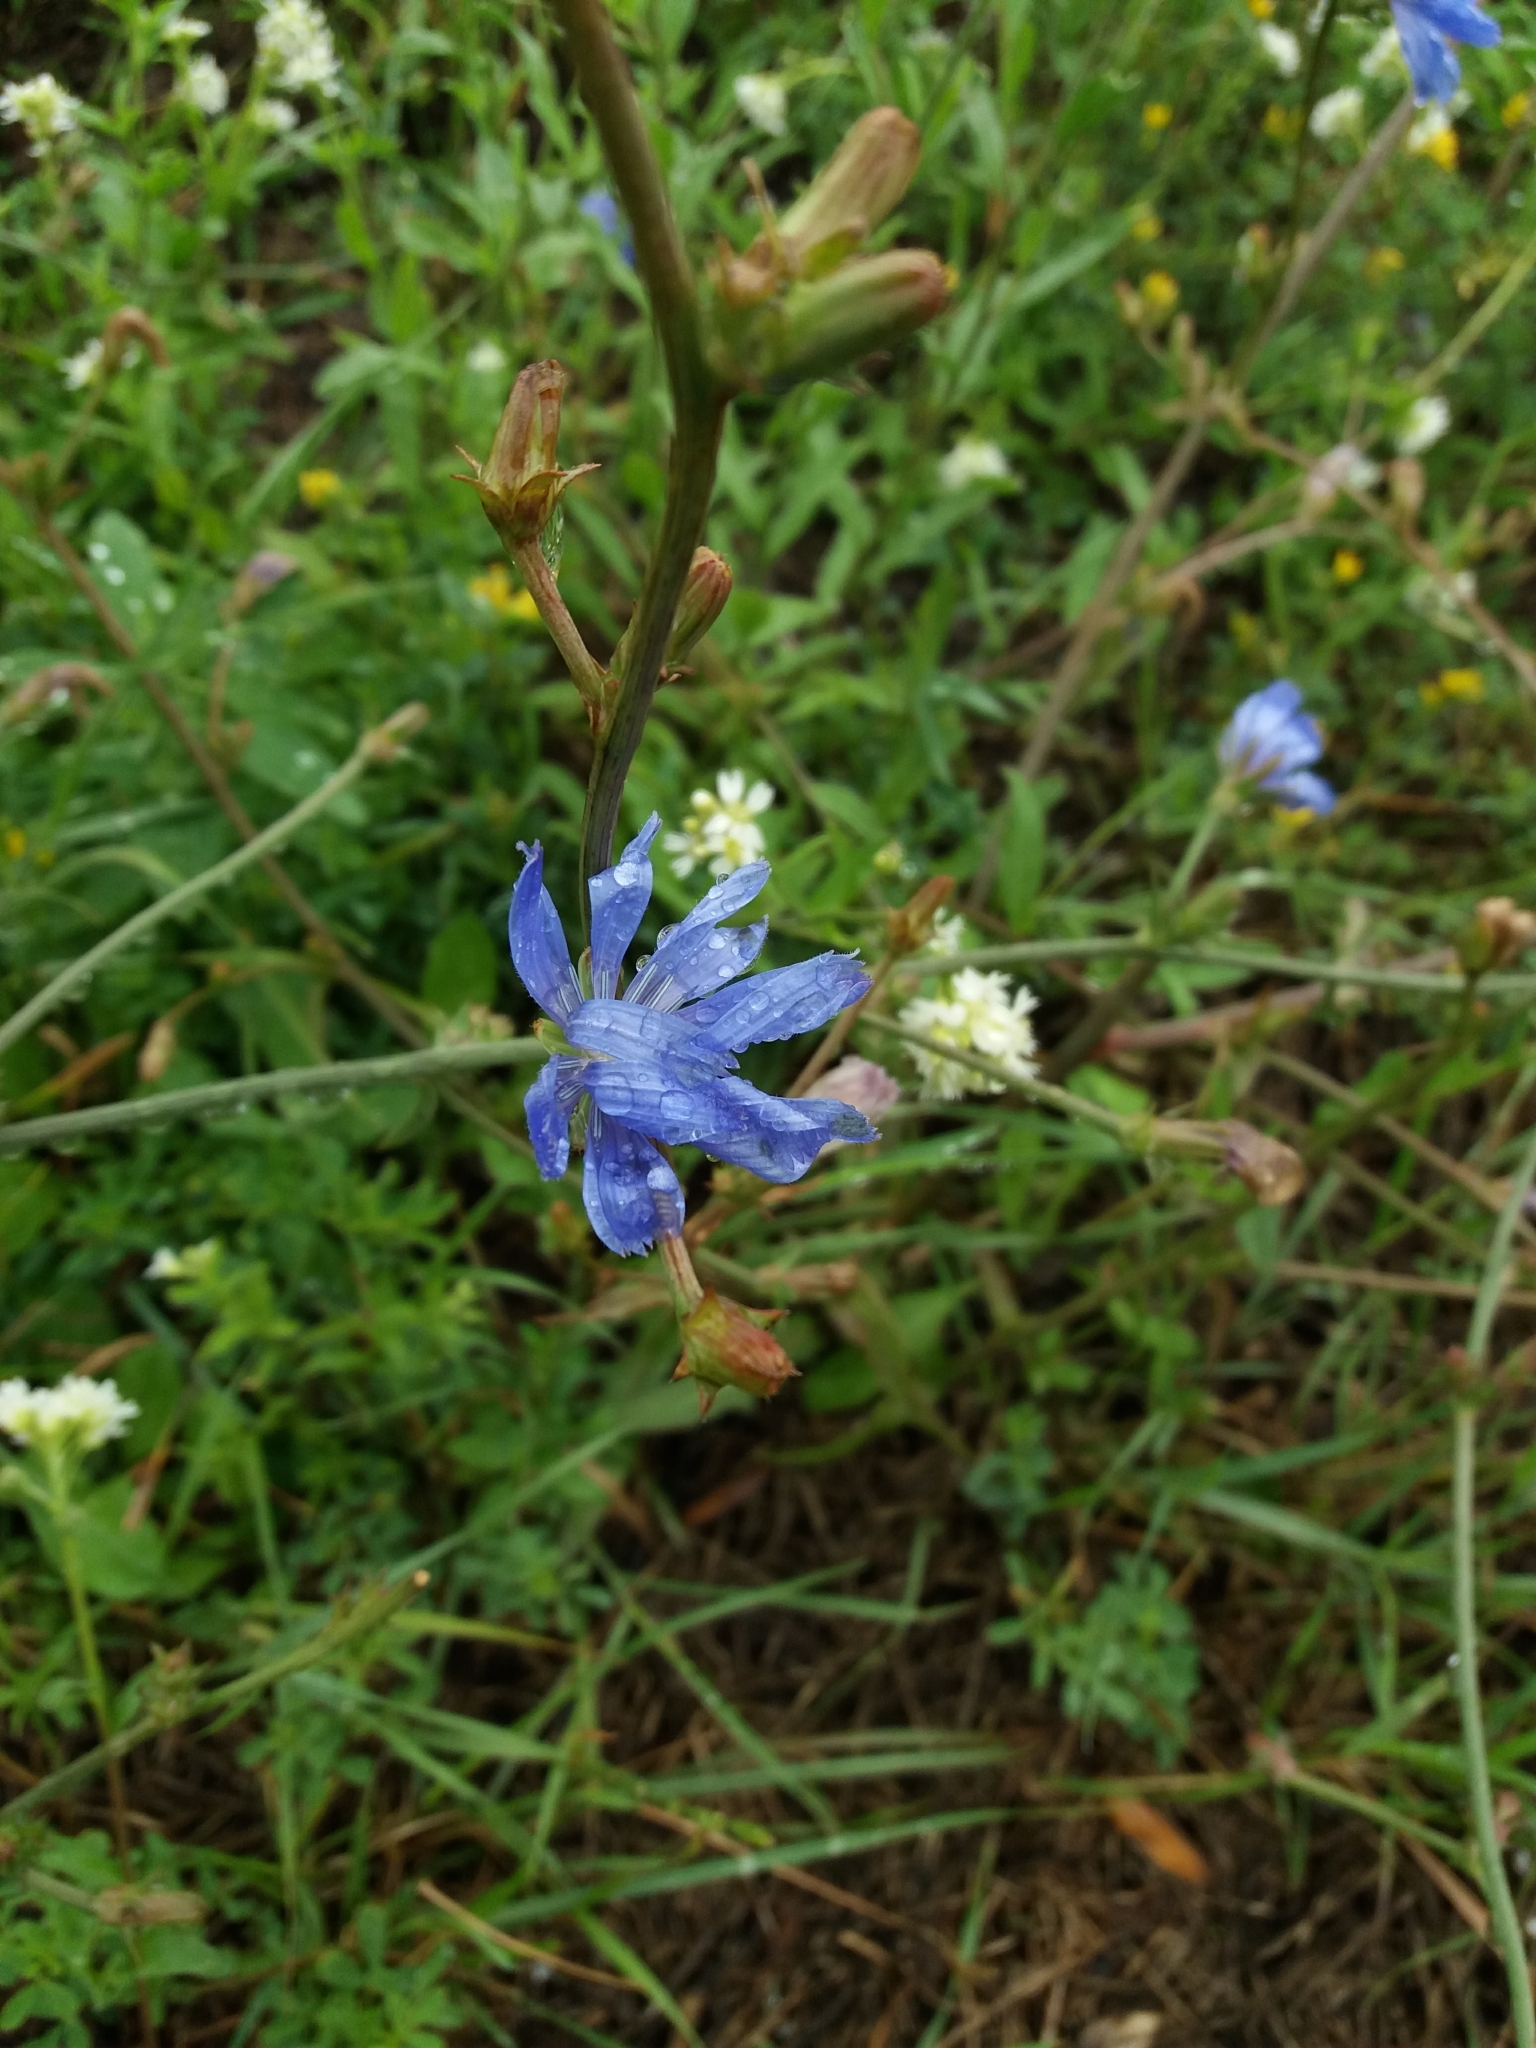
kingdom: Plantae
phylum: Tracheophyta
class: Magnoliopsida
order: Asterales
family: Asteraceae
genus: Cichorium
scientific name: Cichorium intybus
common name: Chicory
